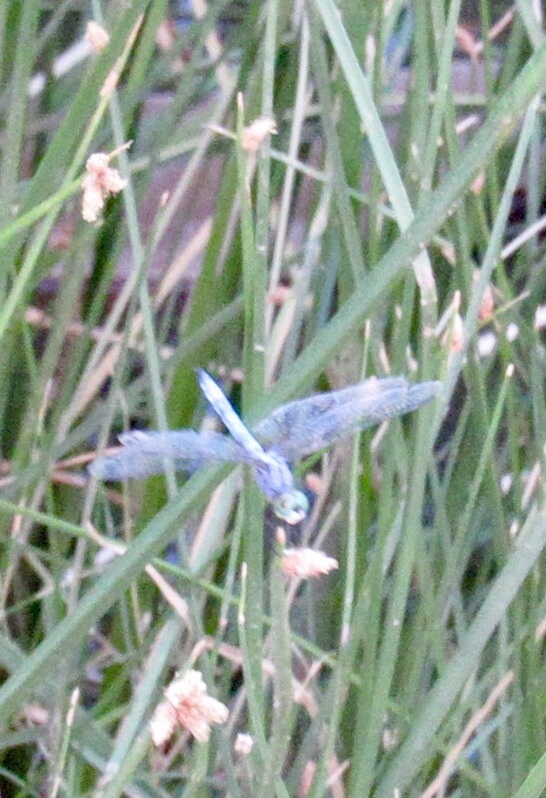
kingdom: Animalia
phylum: Arthropoda
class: Insecta
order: Odonata
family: Libellulidae
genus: Pachydiplax
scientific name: Pachydiplax longipennis
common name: Blue dasher
